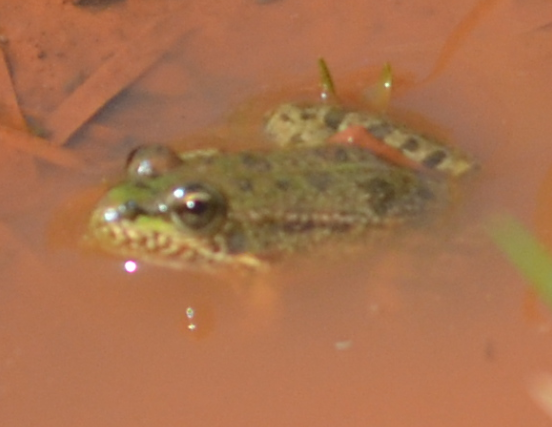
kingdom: Animalia
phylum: Chordata
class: Amphibia
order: Anura
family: Ranidae
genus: Pelophylax
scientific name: Pelophylax perezi
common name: Perez's frog
